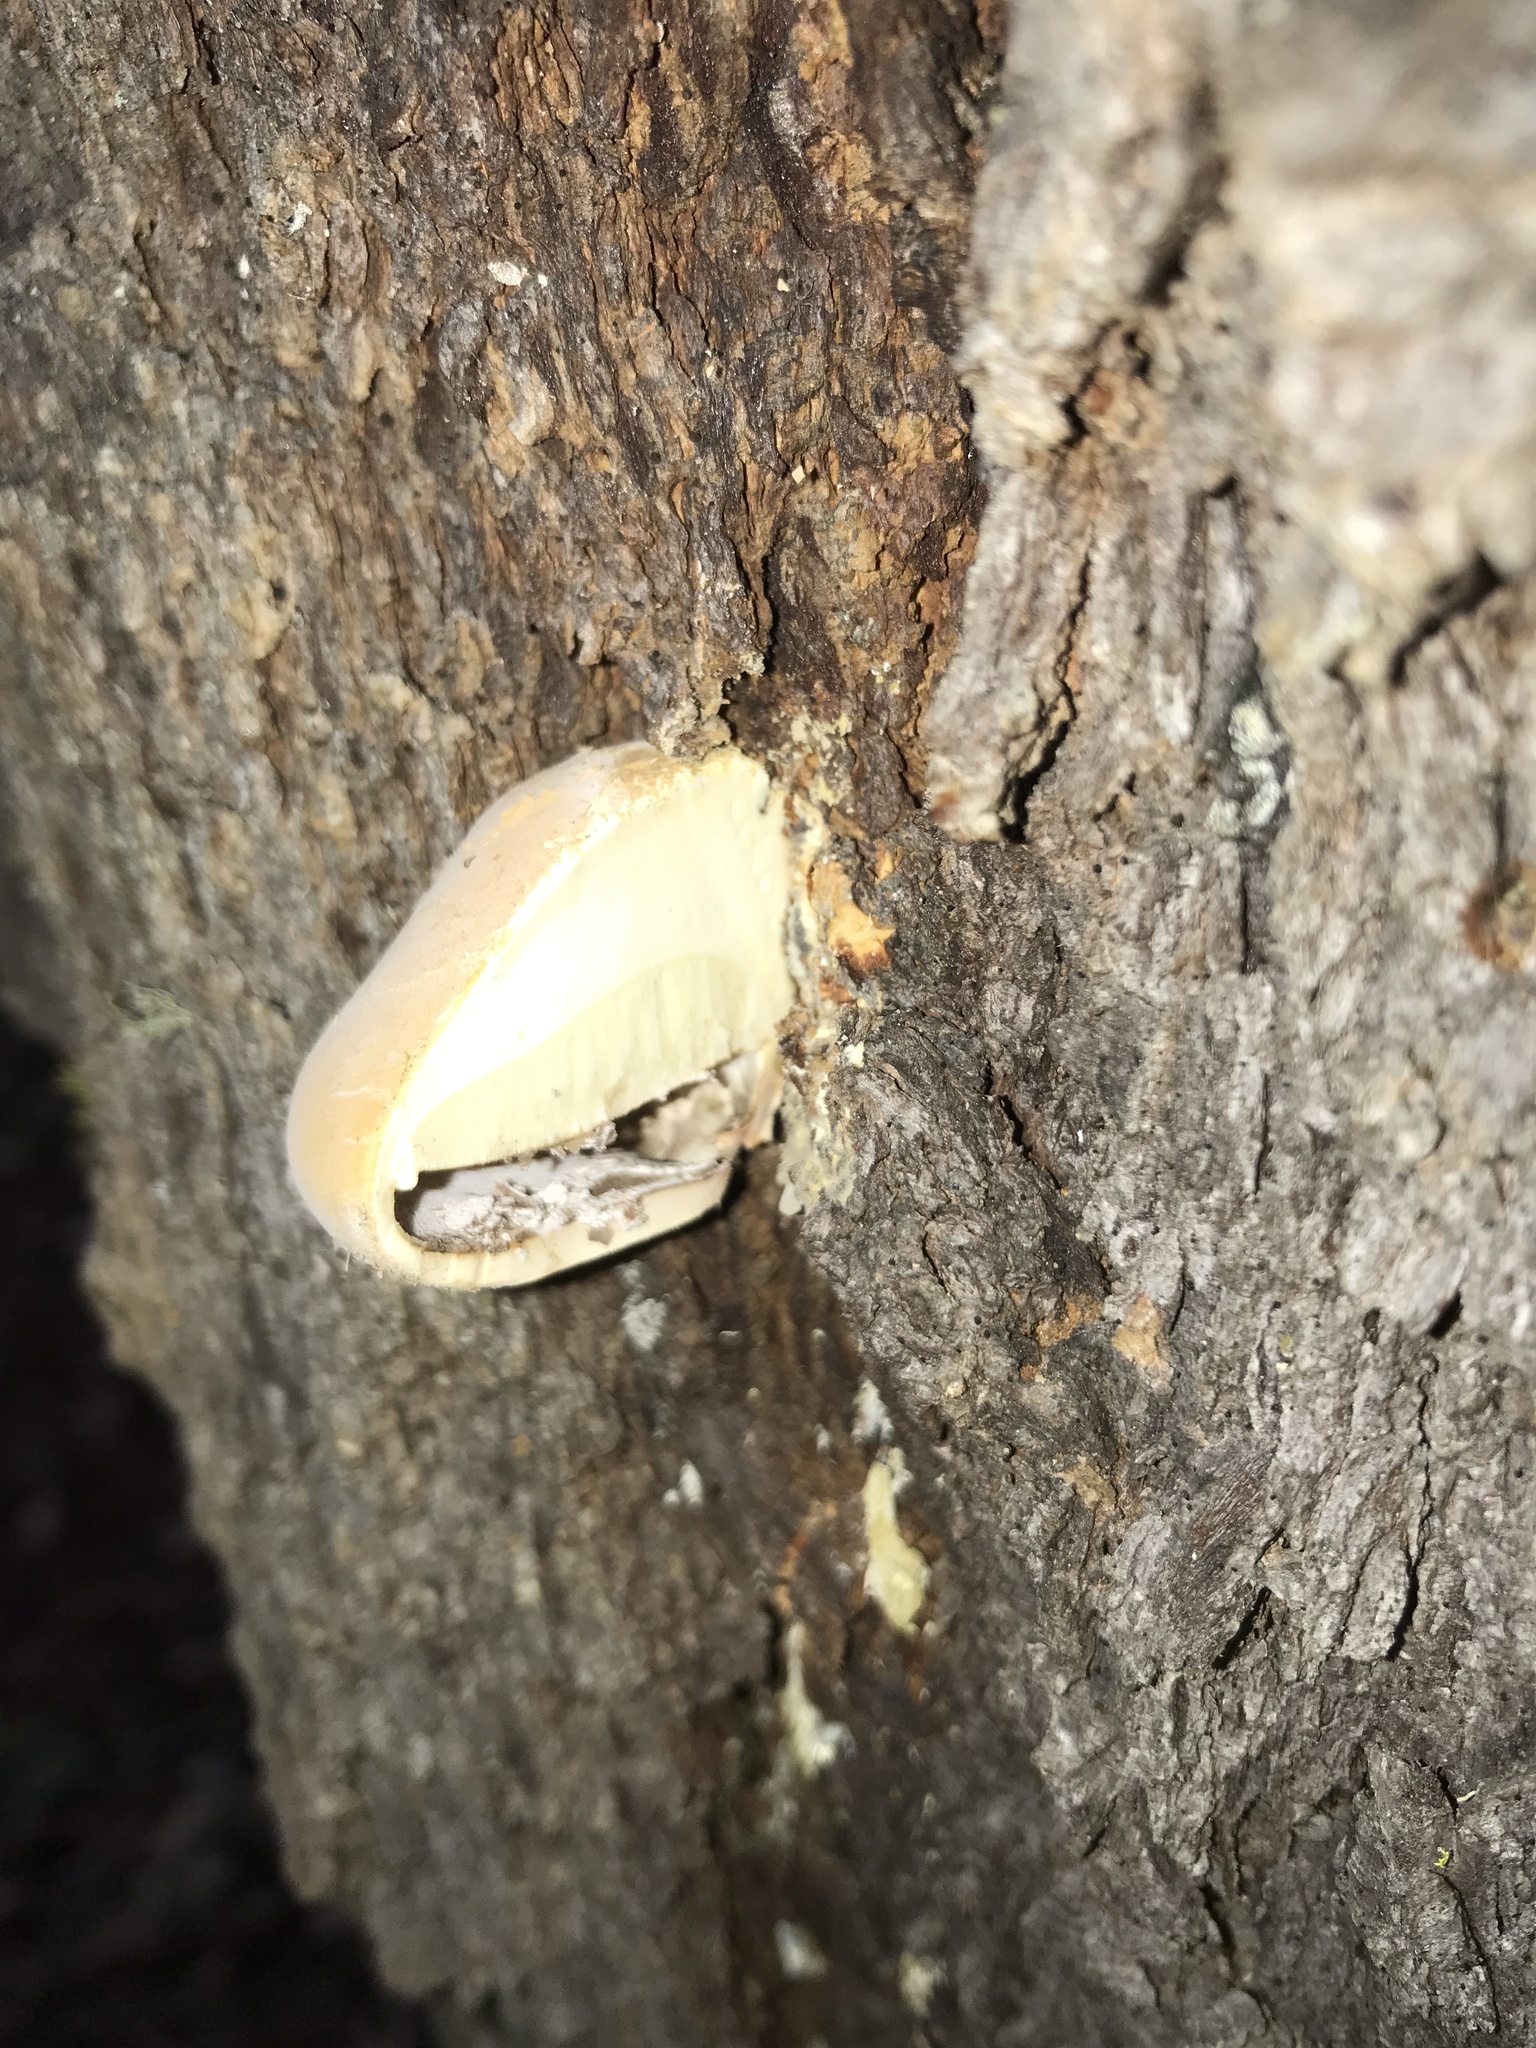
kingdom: Fungi
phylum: Basidiomycota
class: Agaricomycetes
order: Polyporales
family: Polyporaceae
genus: Cryptoporus
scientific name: Cryptoporus volvatus
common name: Veiled polypore
